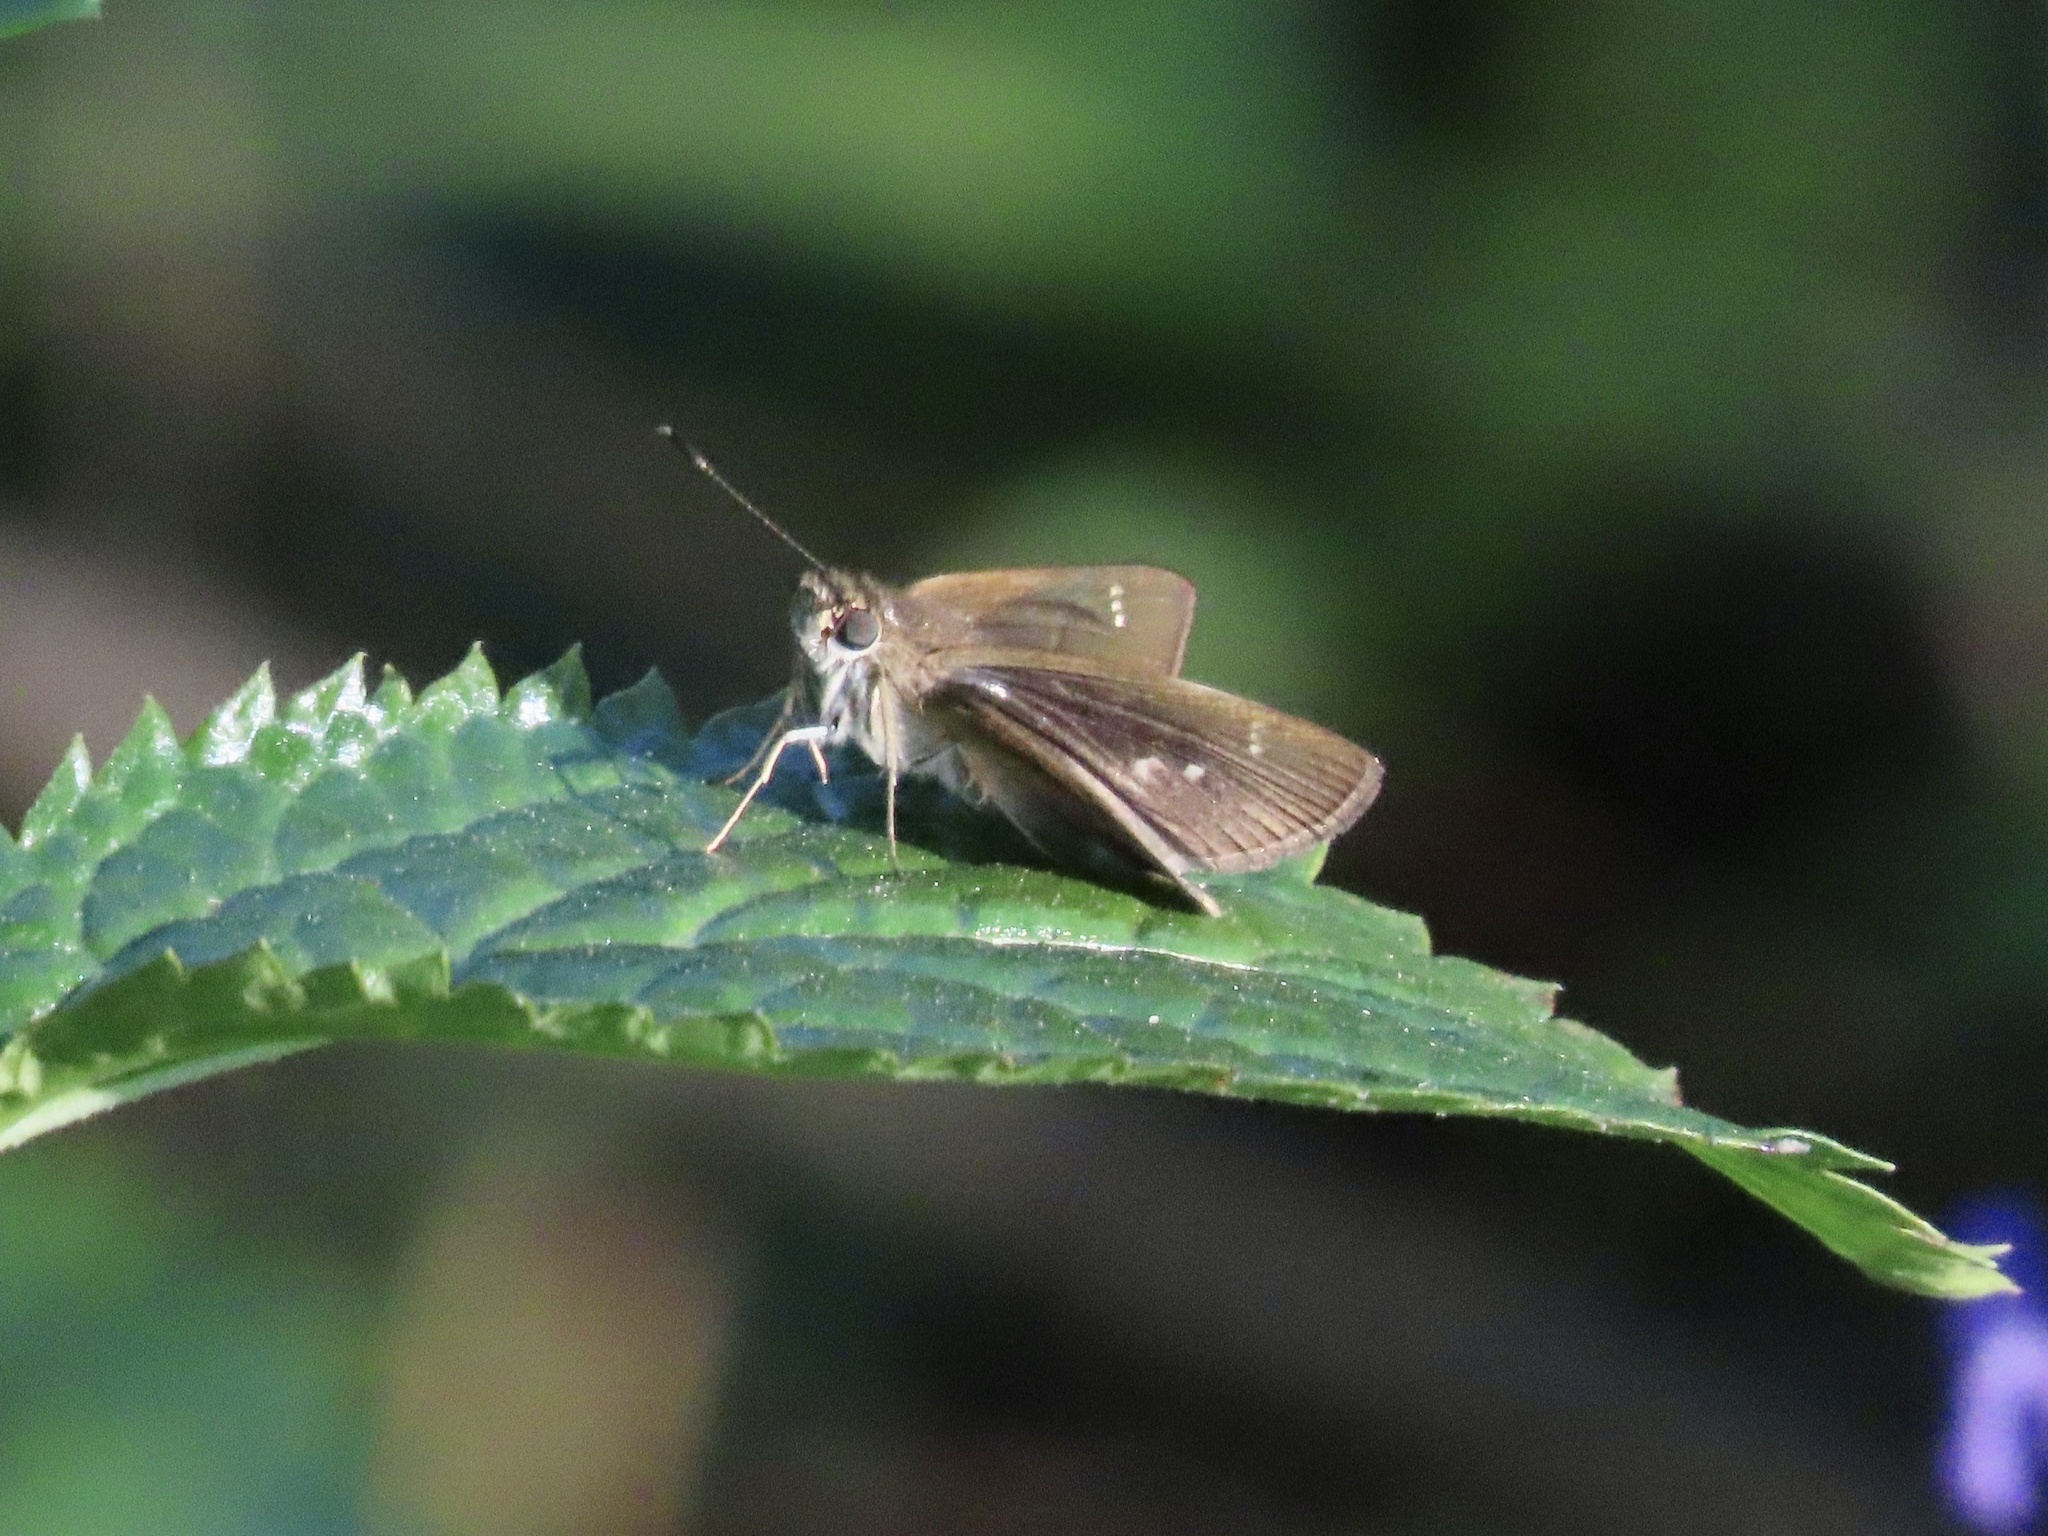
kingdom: Animalia
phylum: Arthropoda
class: Insecta
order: Lepidoptera
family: Hesperiidae
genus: Cymaenes
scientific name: Cymaenes tripunctus
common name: Dingy dotted skipper
